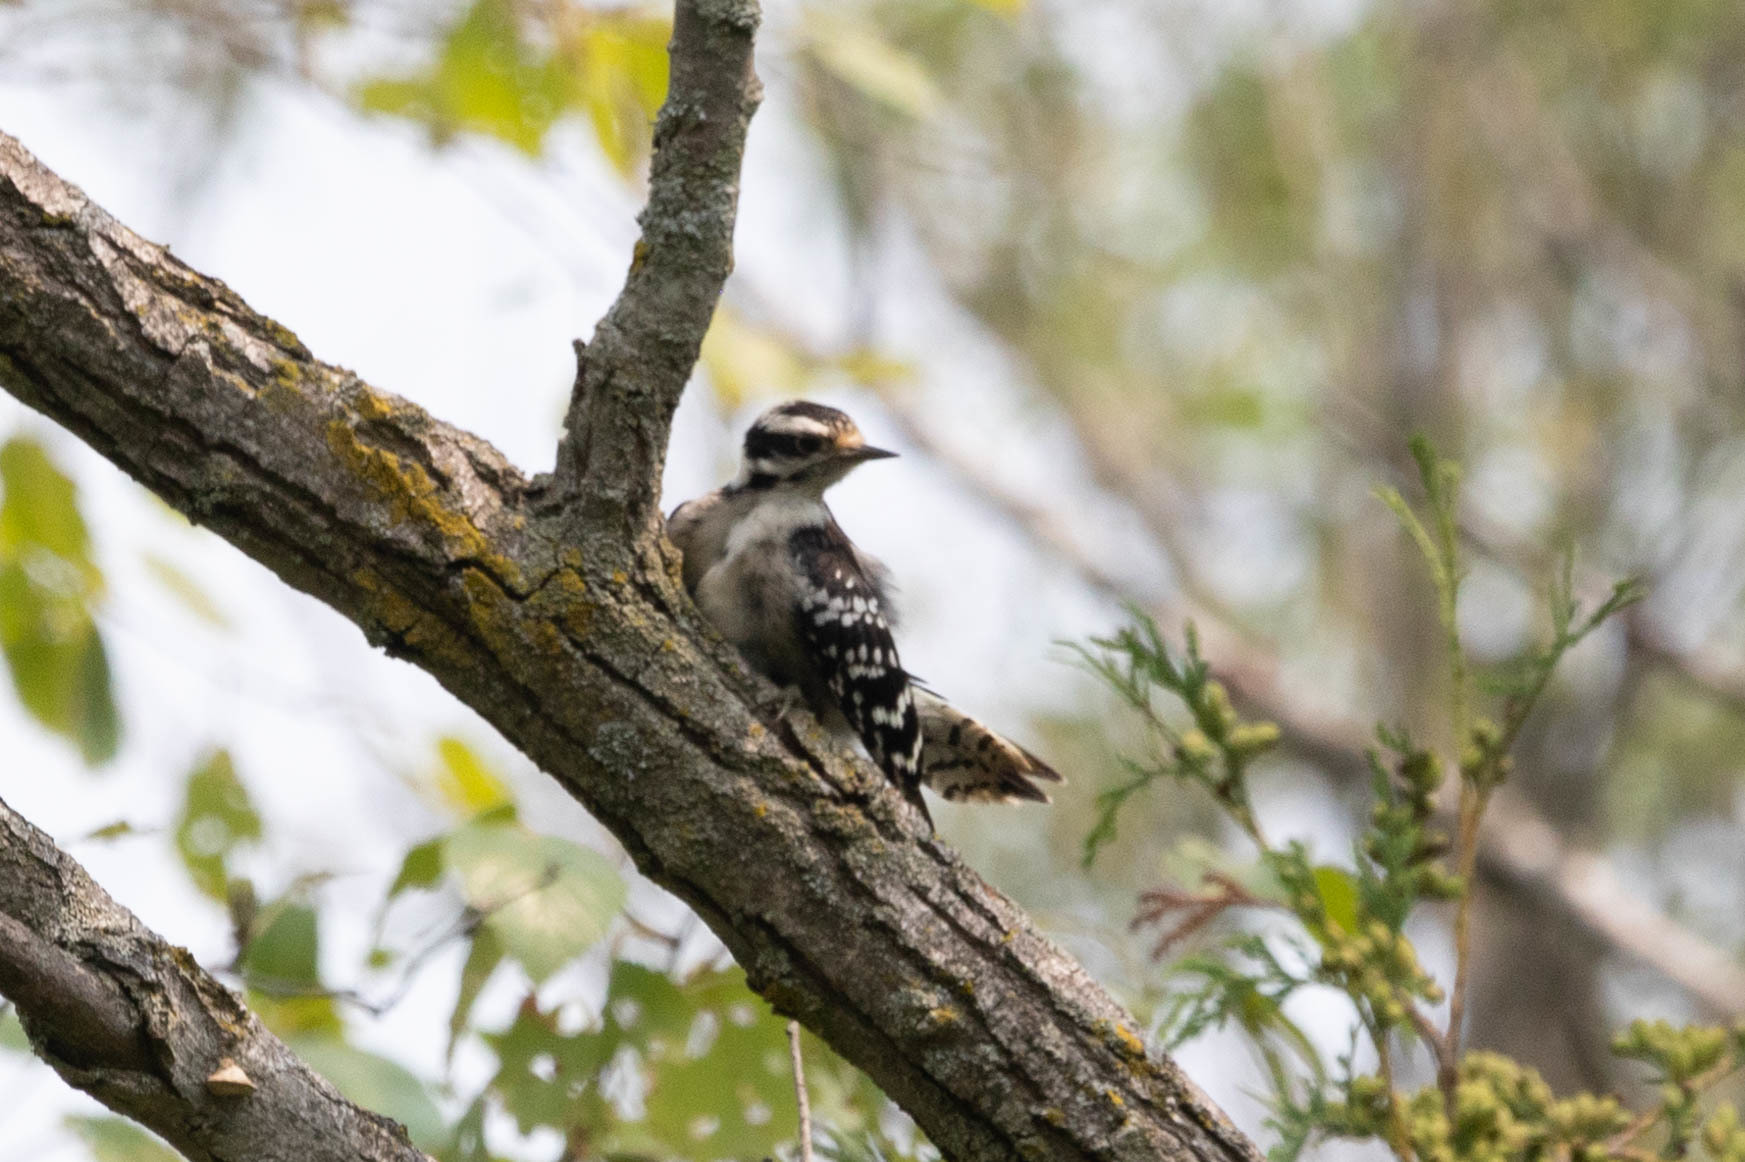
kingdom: Animalia
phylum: Chordata
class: Aves
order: Piciformes
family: Picidae
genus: Dryobates
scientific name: Dryobates pubescens
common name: Downy woodpecker
